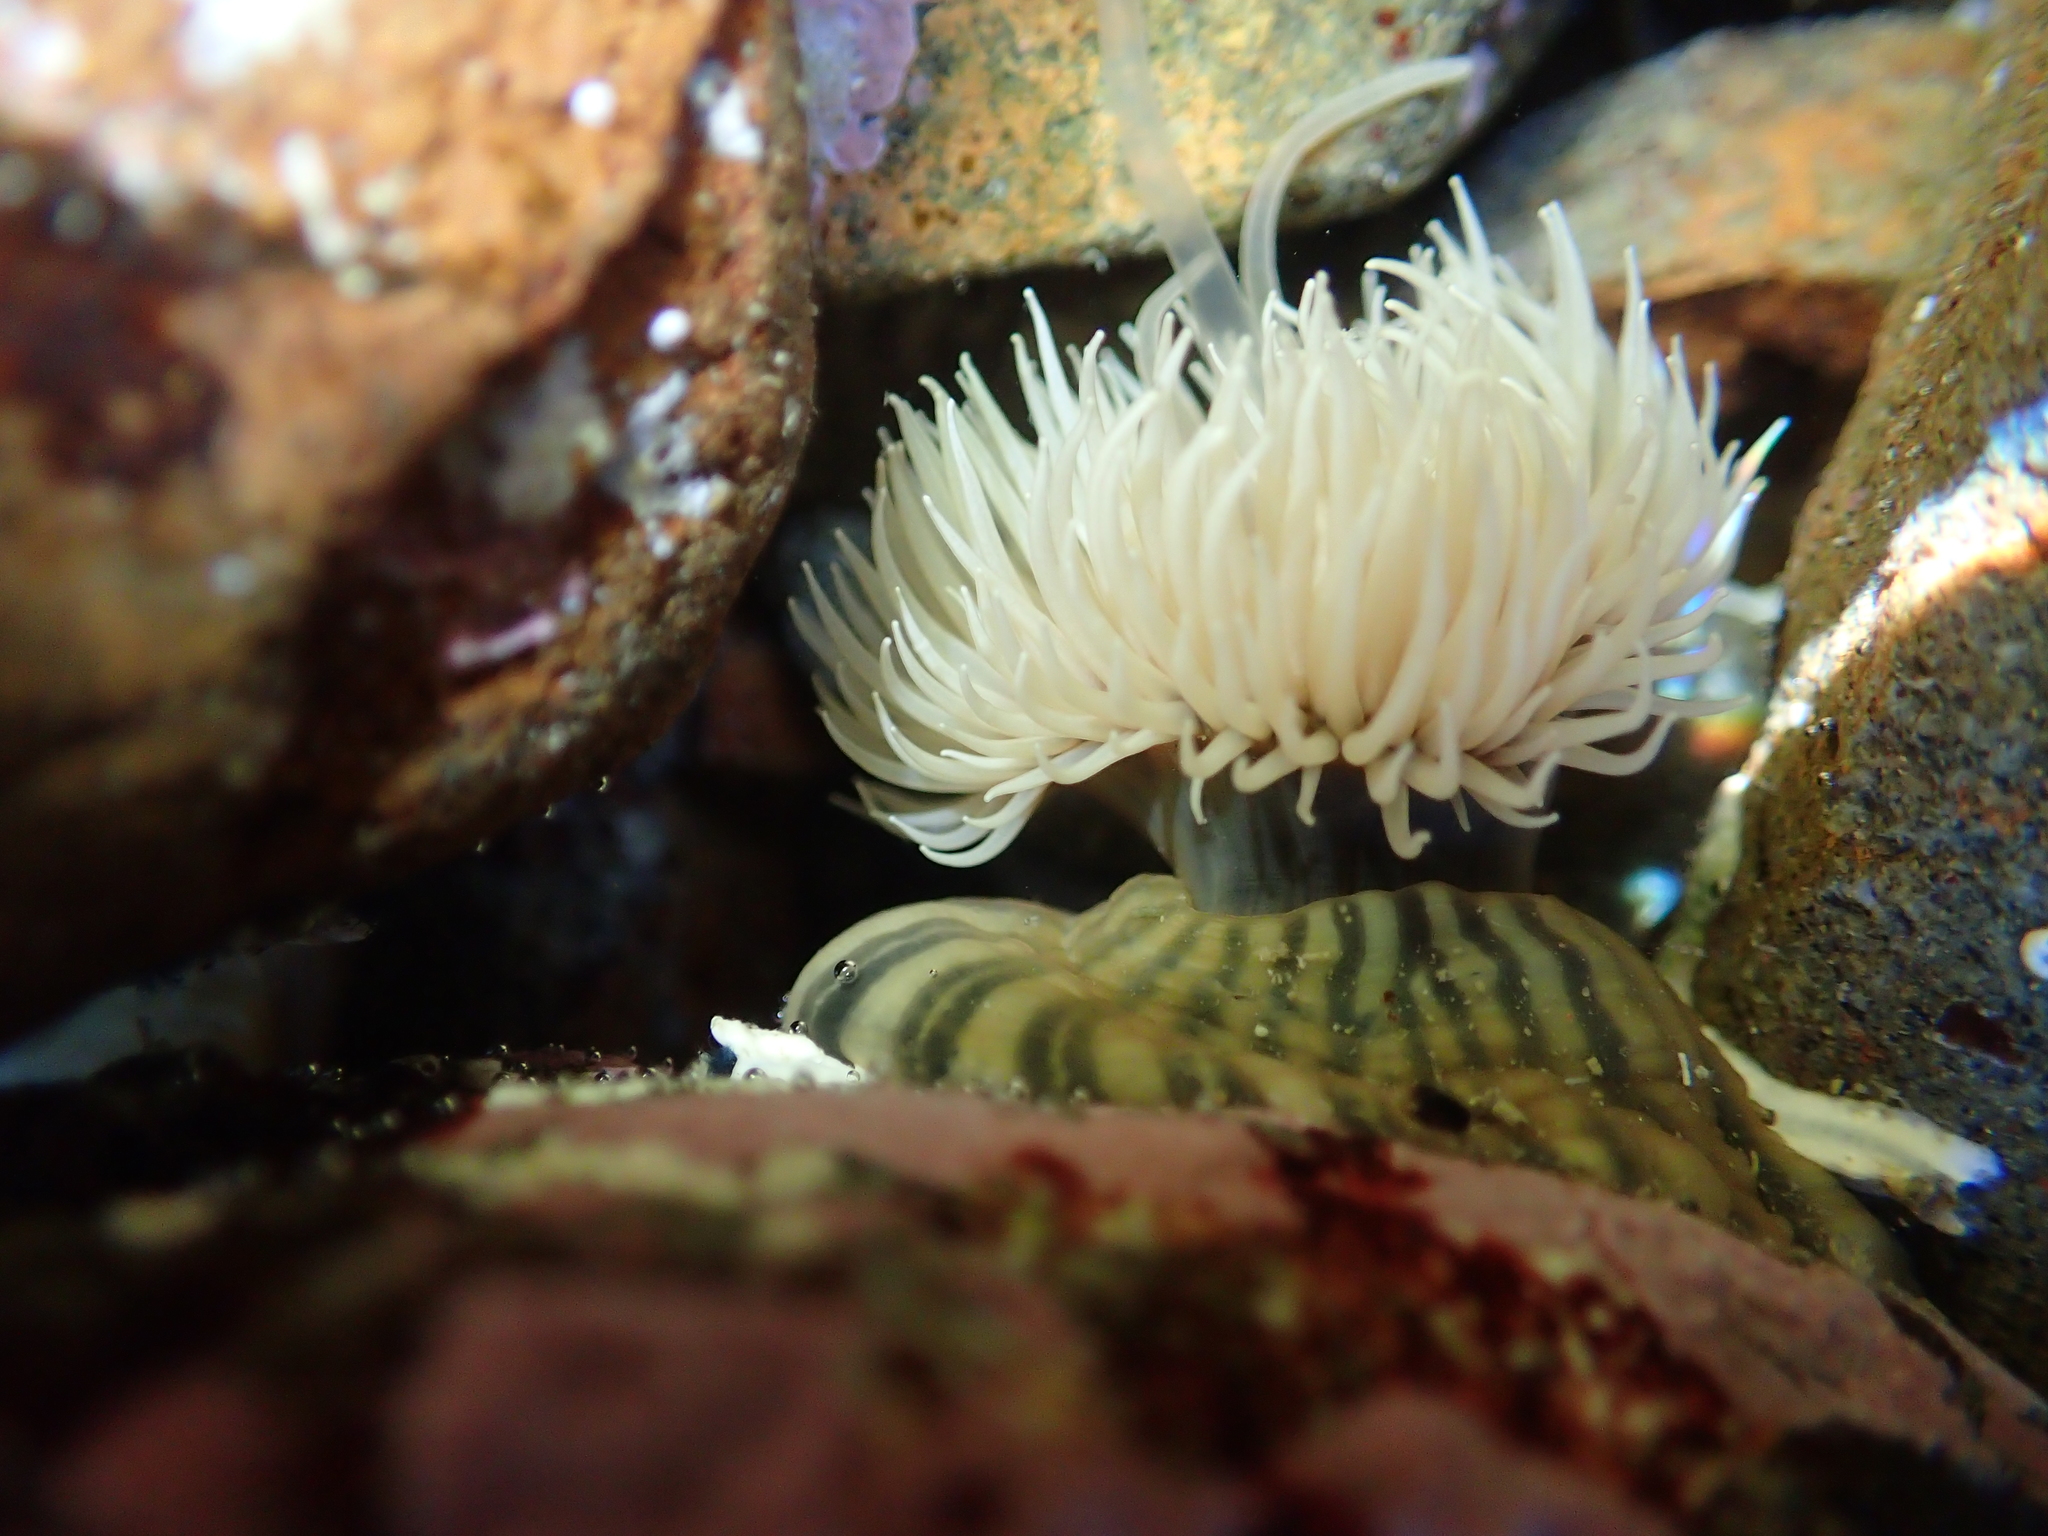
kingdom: Animalia
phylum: Cnidaria
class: Anthozoa
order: Actiniaria
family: Diadumenidae
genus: Diadumene
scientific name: Diadumene neozelanica
